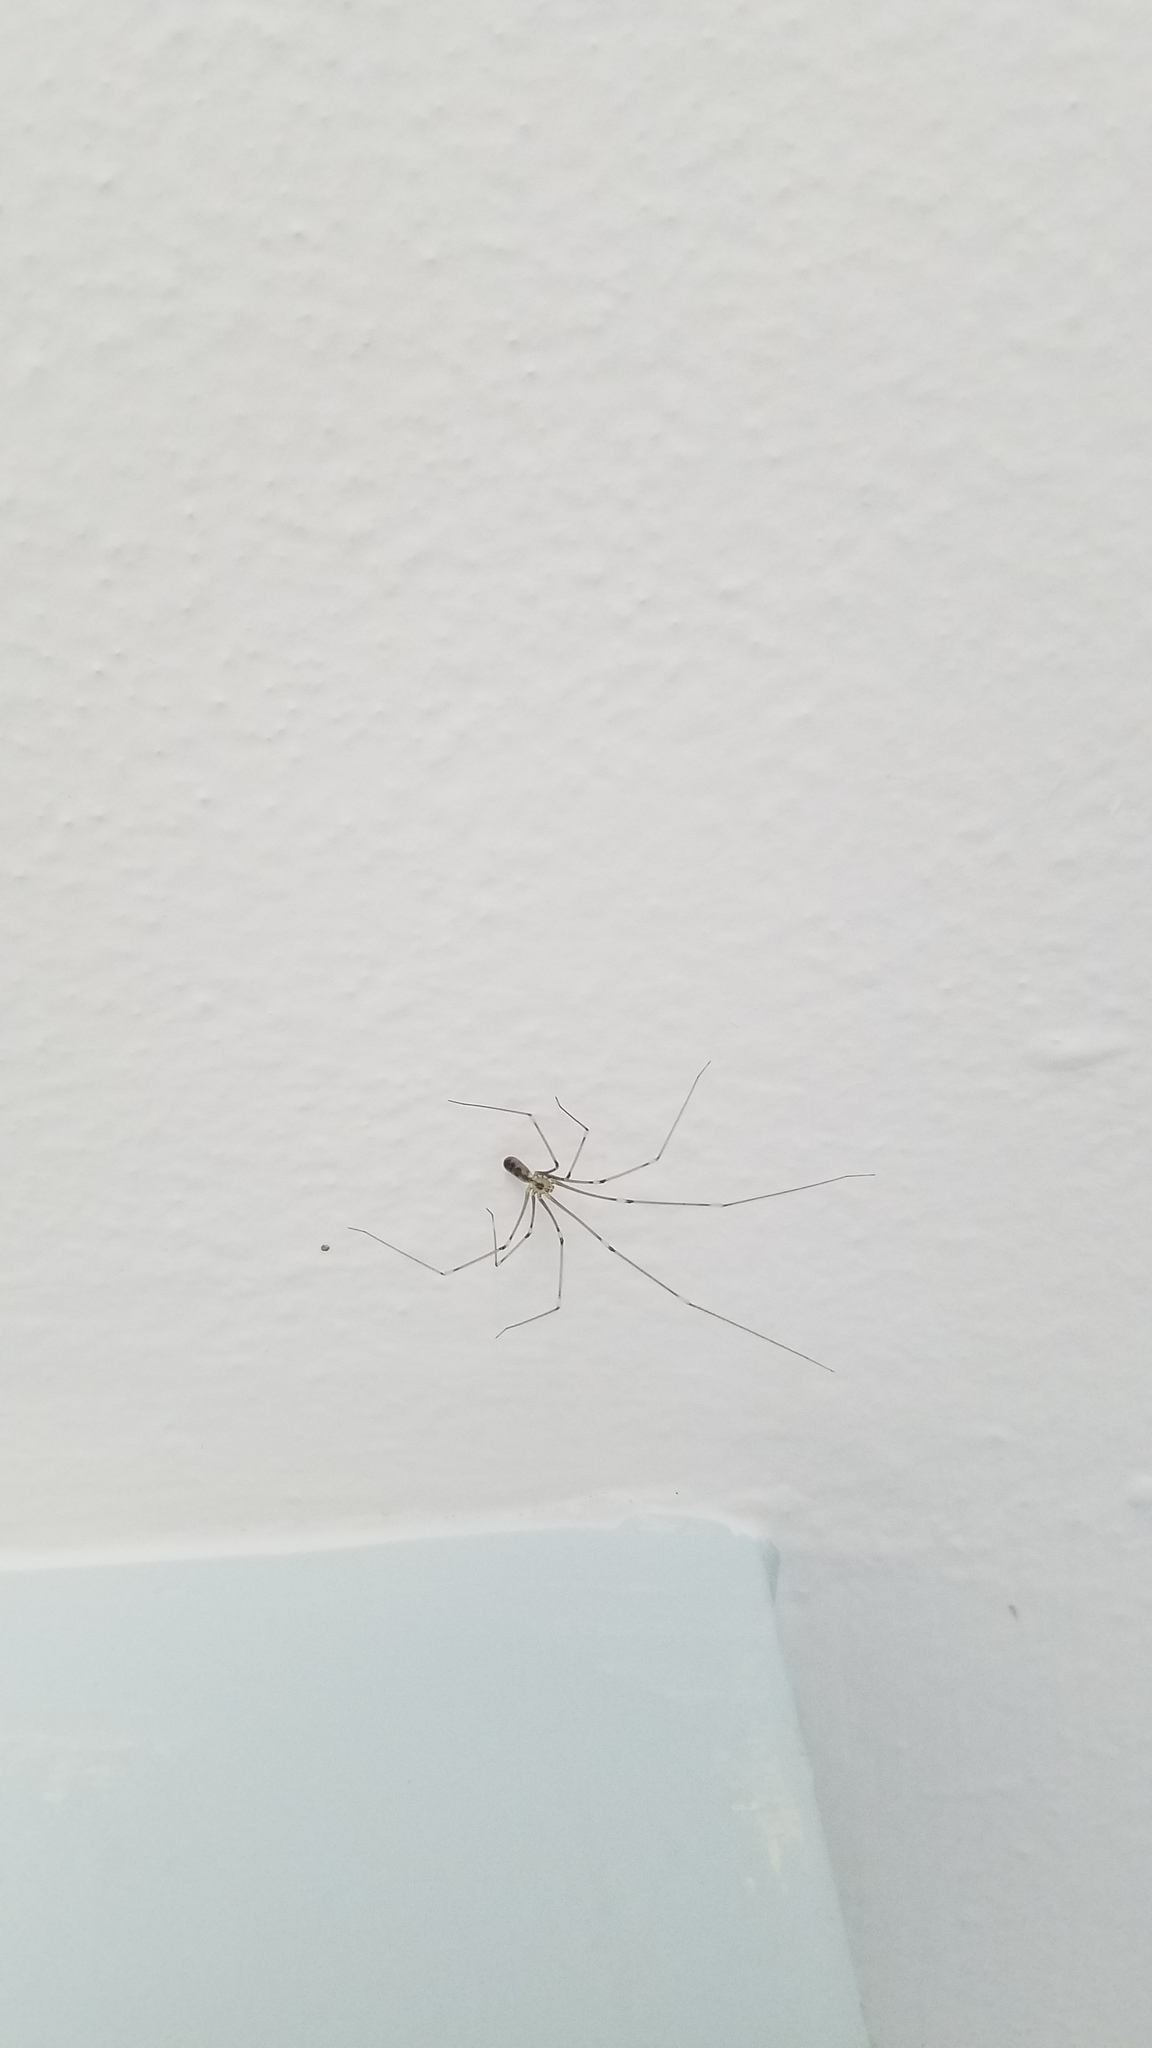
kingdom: Animalia
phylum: Arthropoda
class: Arachnida
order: Araneae
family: Pholcidae
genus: Pholcus
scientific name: Pholcus phalangioides
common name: Longbodied cellar spider
